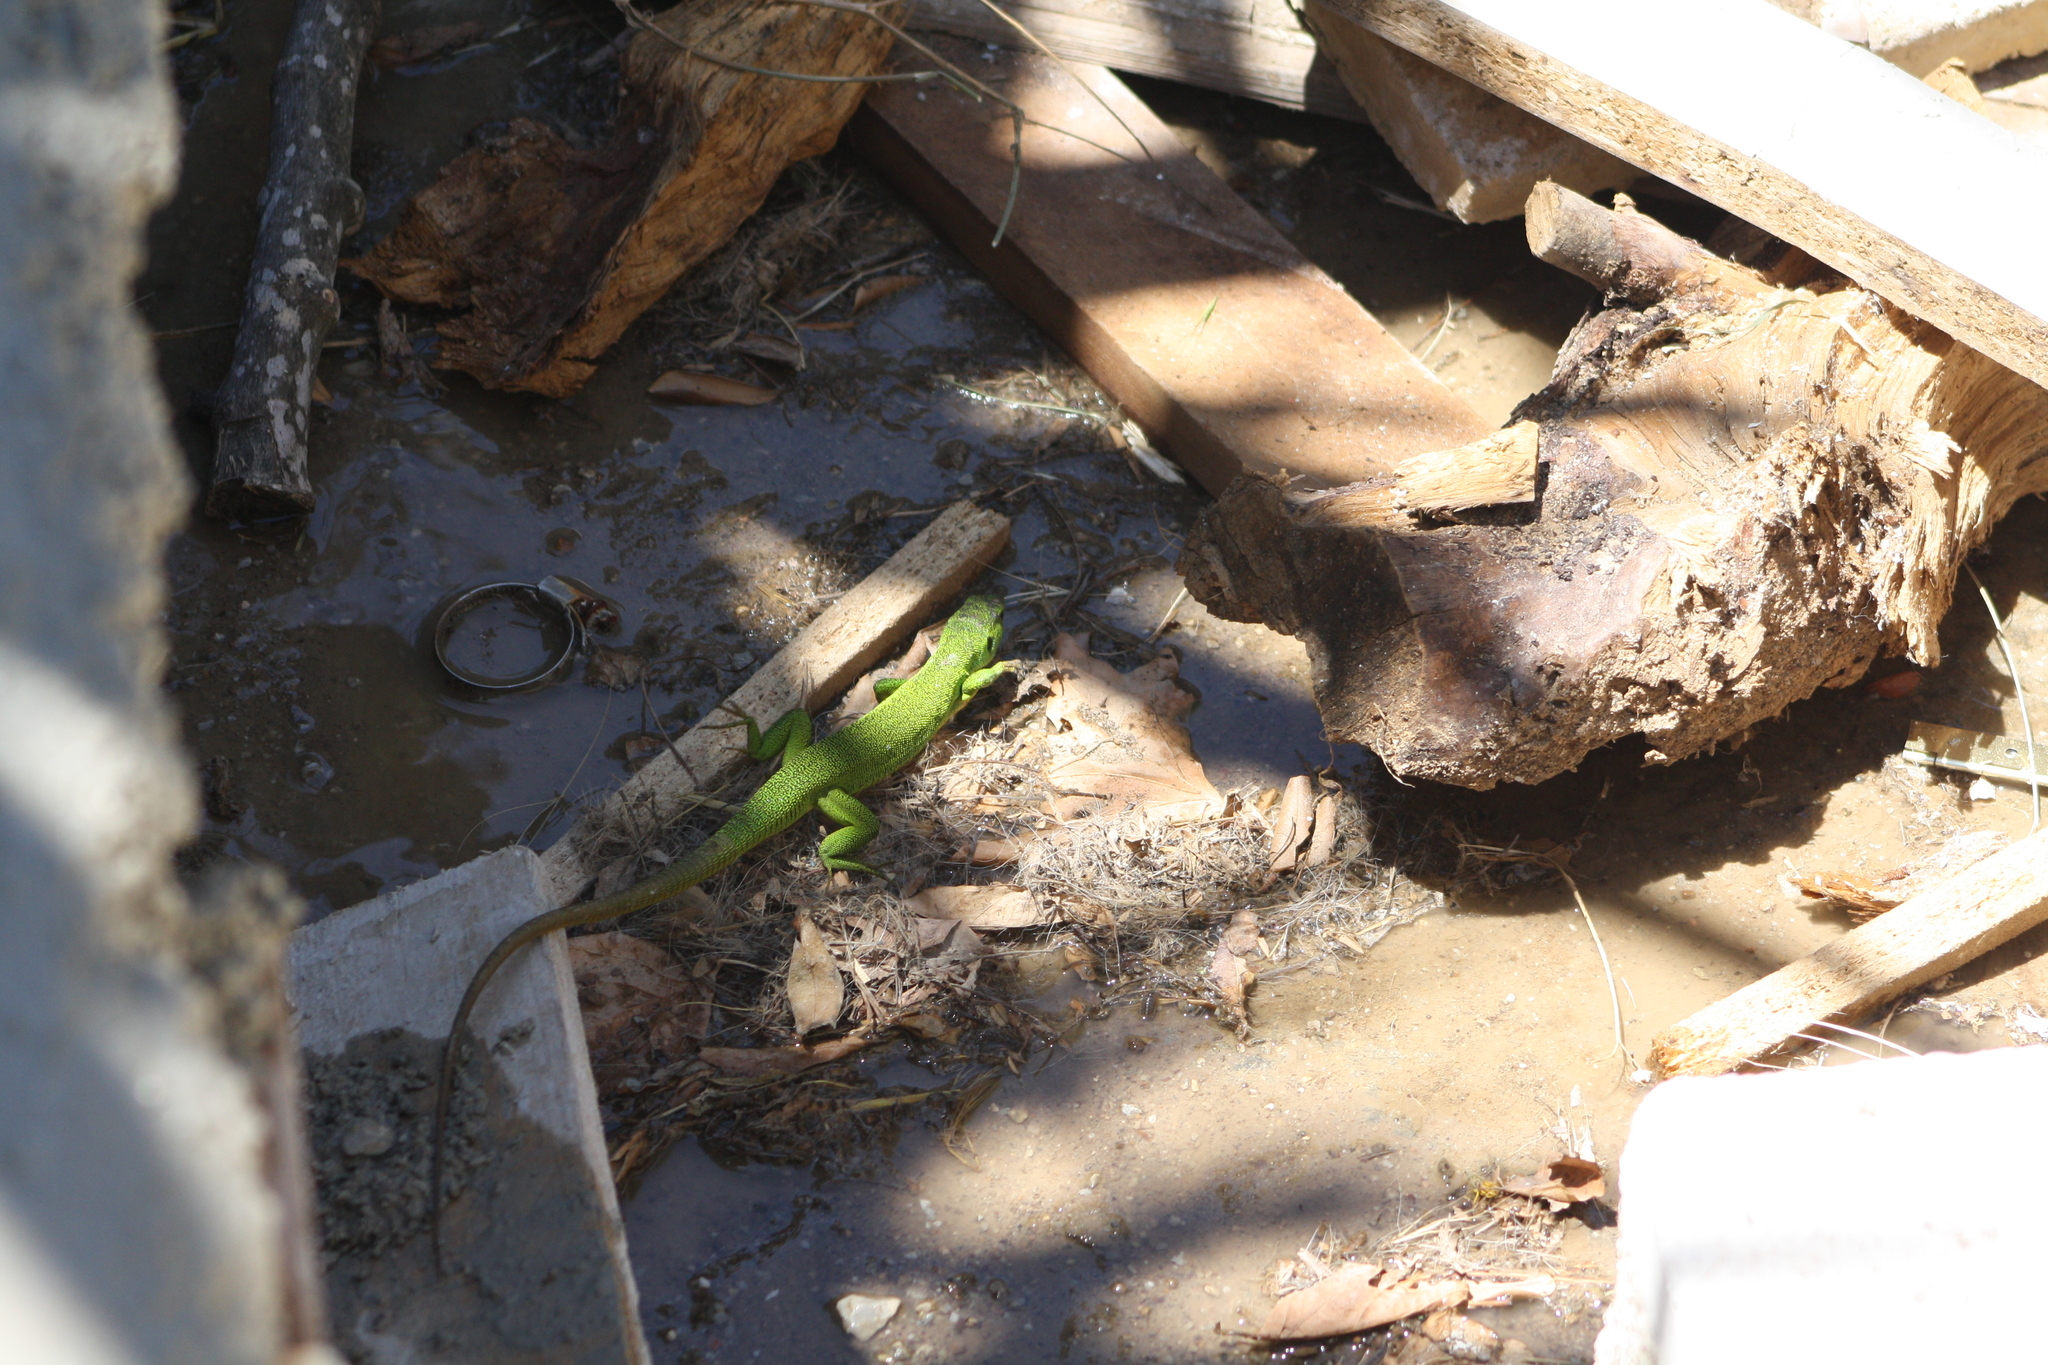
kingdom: Animalia
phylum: Chordata
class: Squamata
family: Lacertidae
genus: Lacerta
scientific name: Lacerta trilineata
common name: Balkan green lizard
